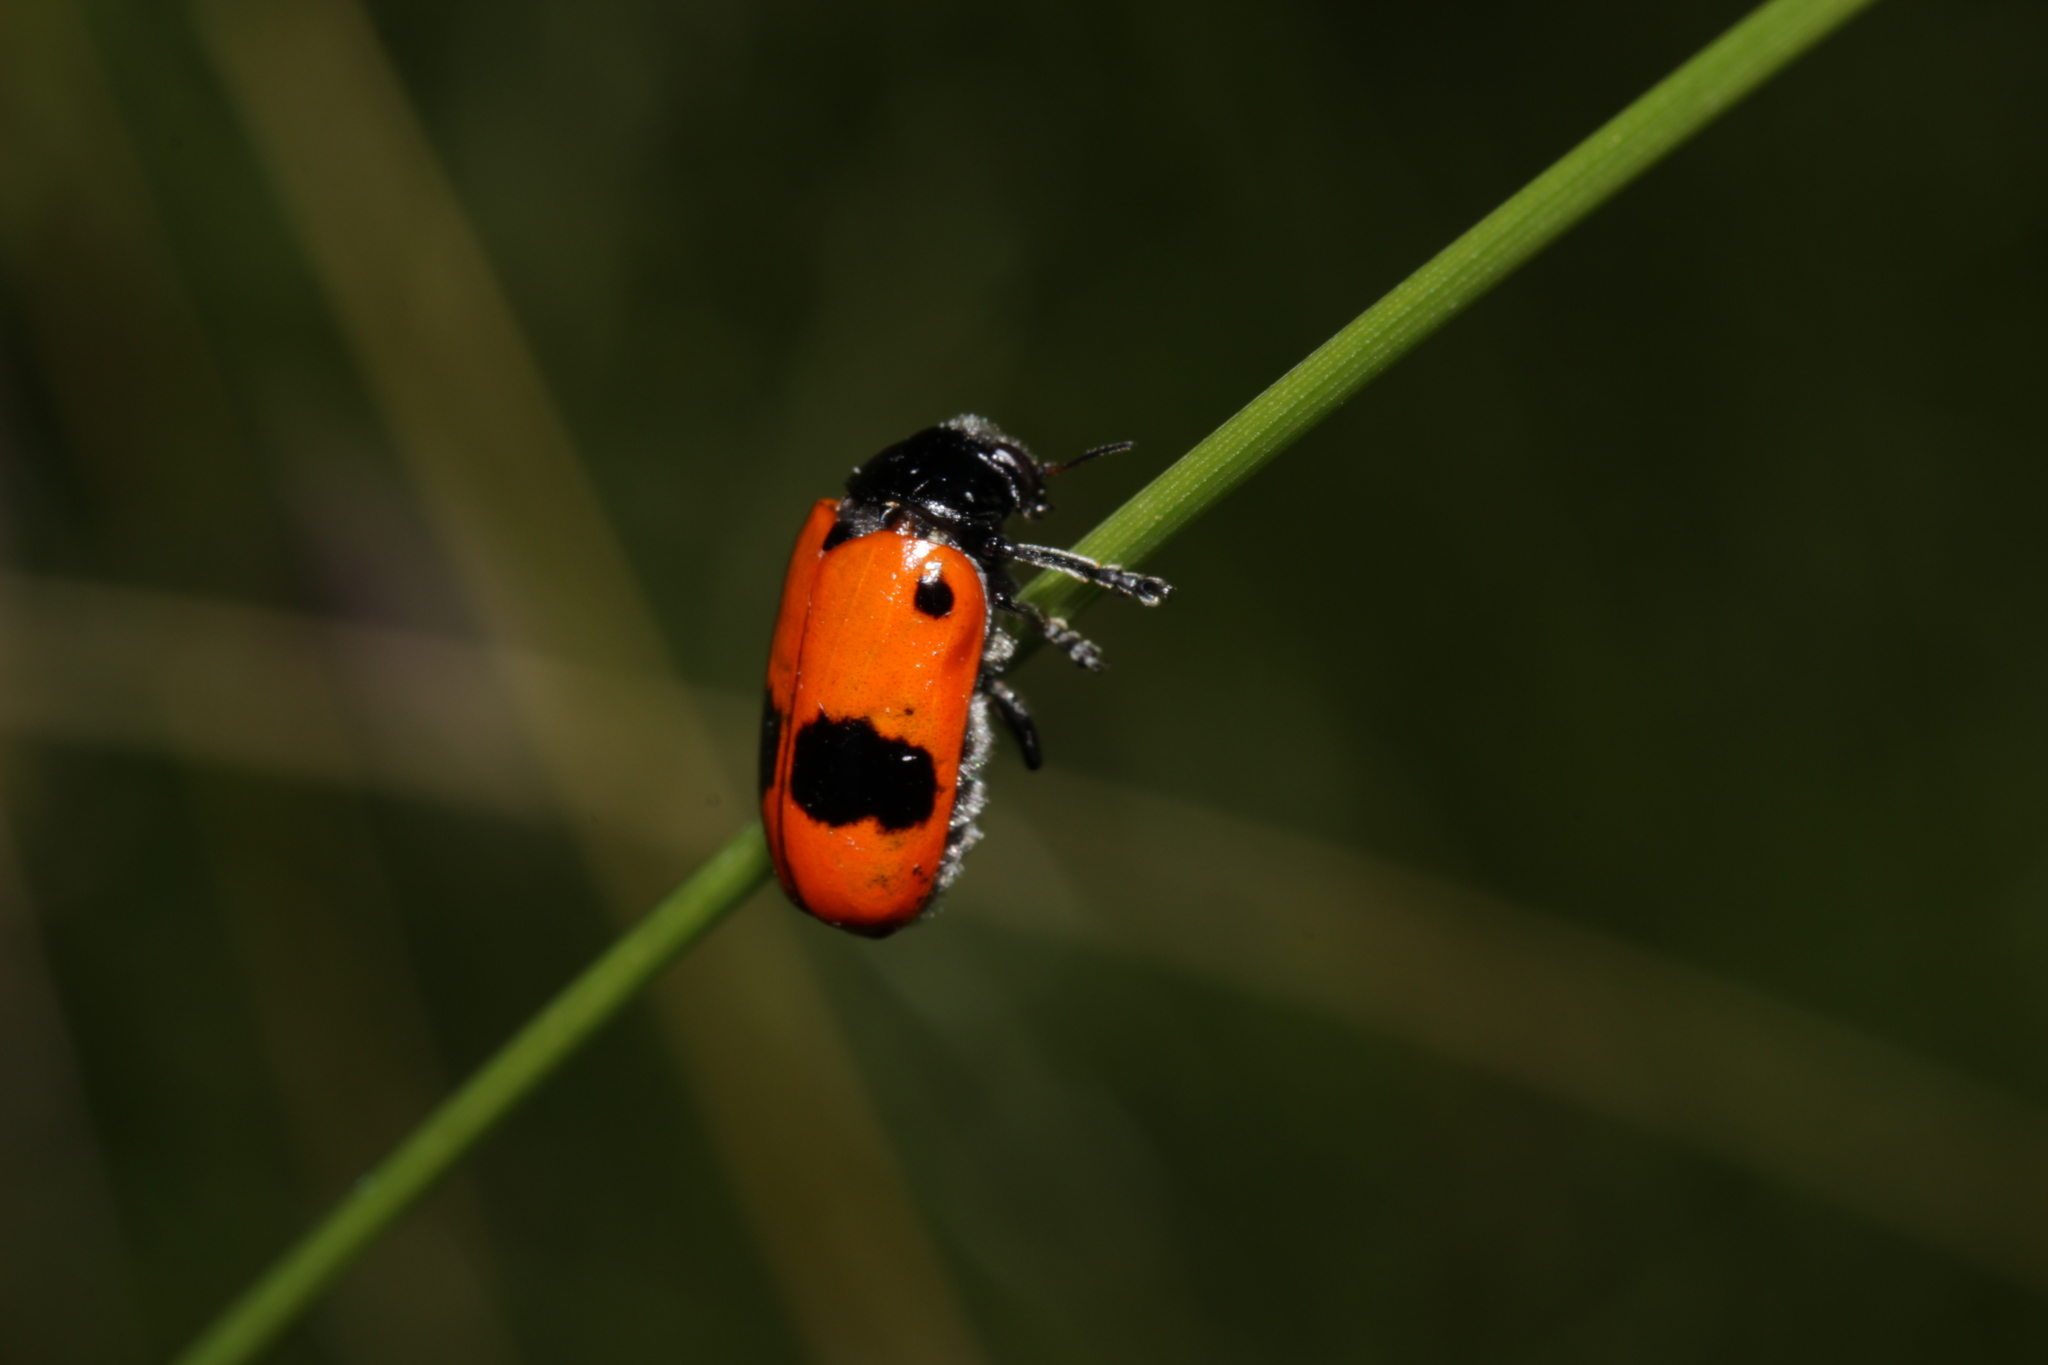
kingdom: Animalia
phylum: Arthropoda
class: Insecta
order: Coleoptera
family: Chrysomelidae
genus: Clytra
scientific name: Clytra laeviuscula
